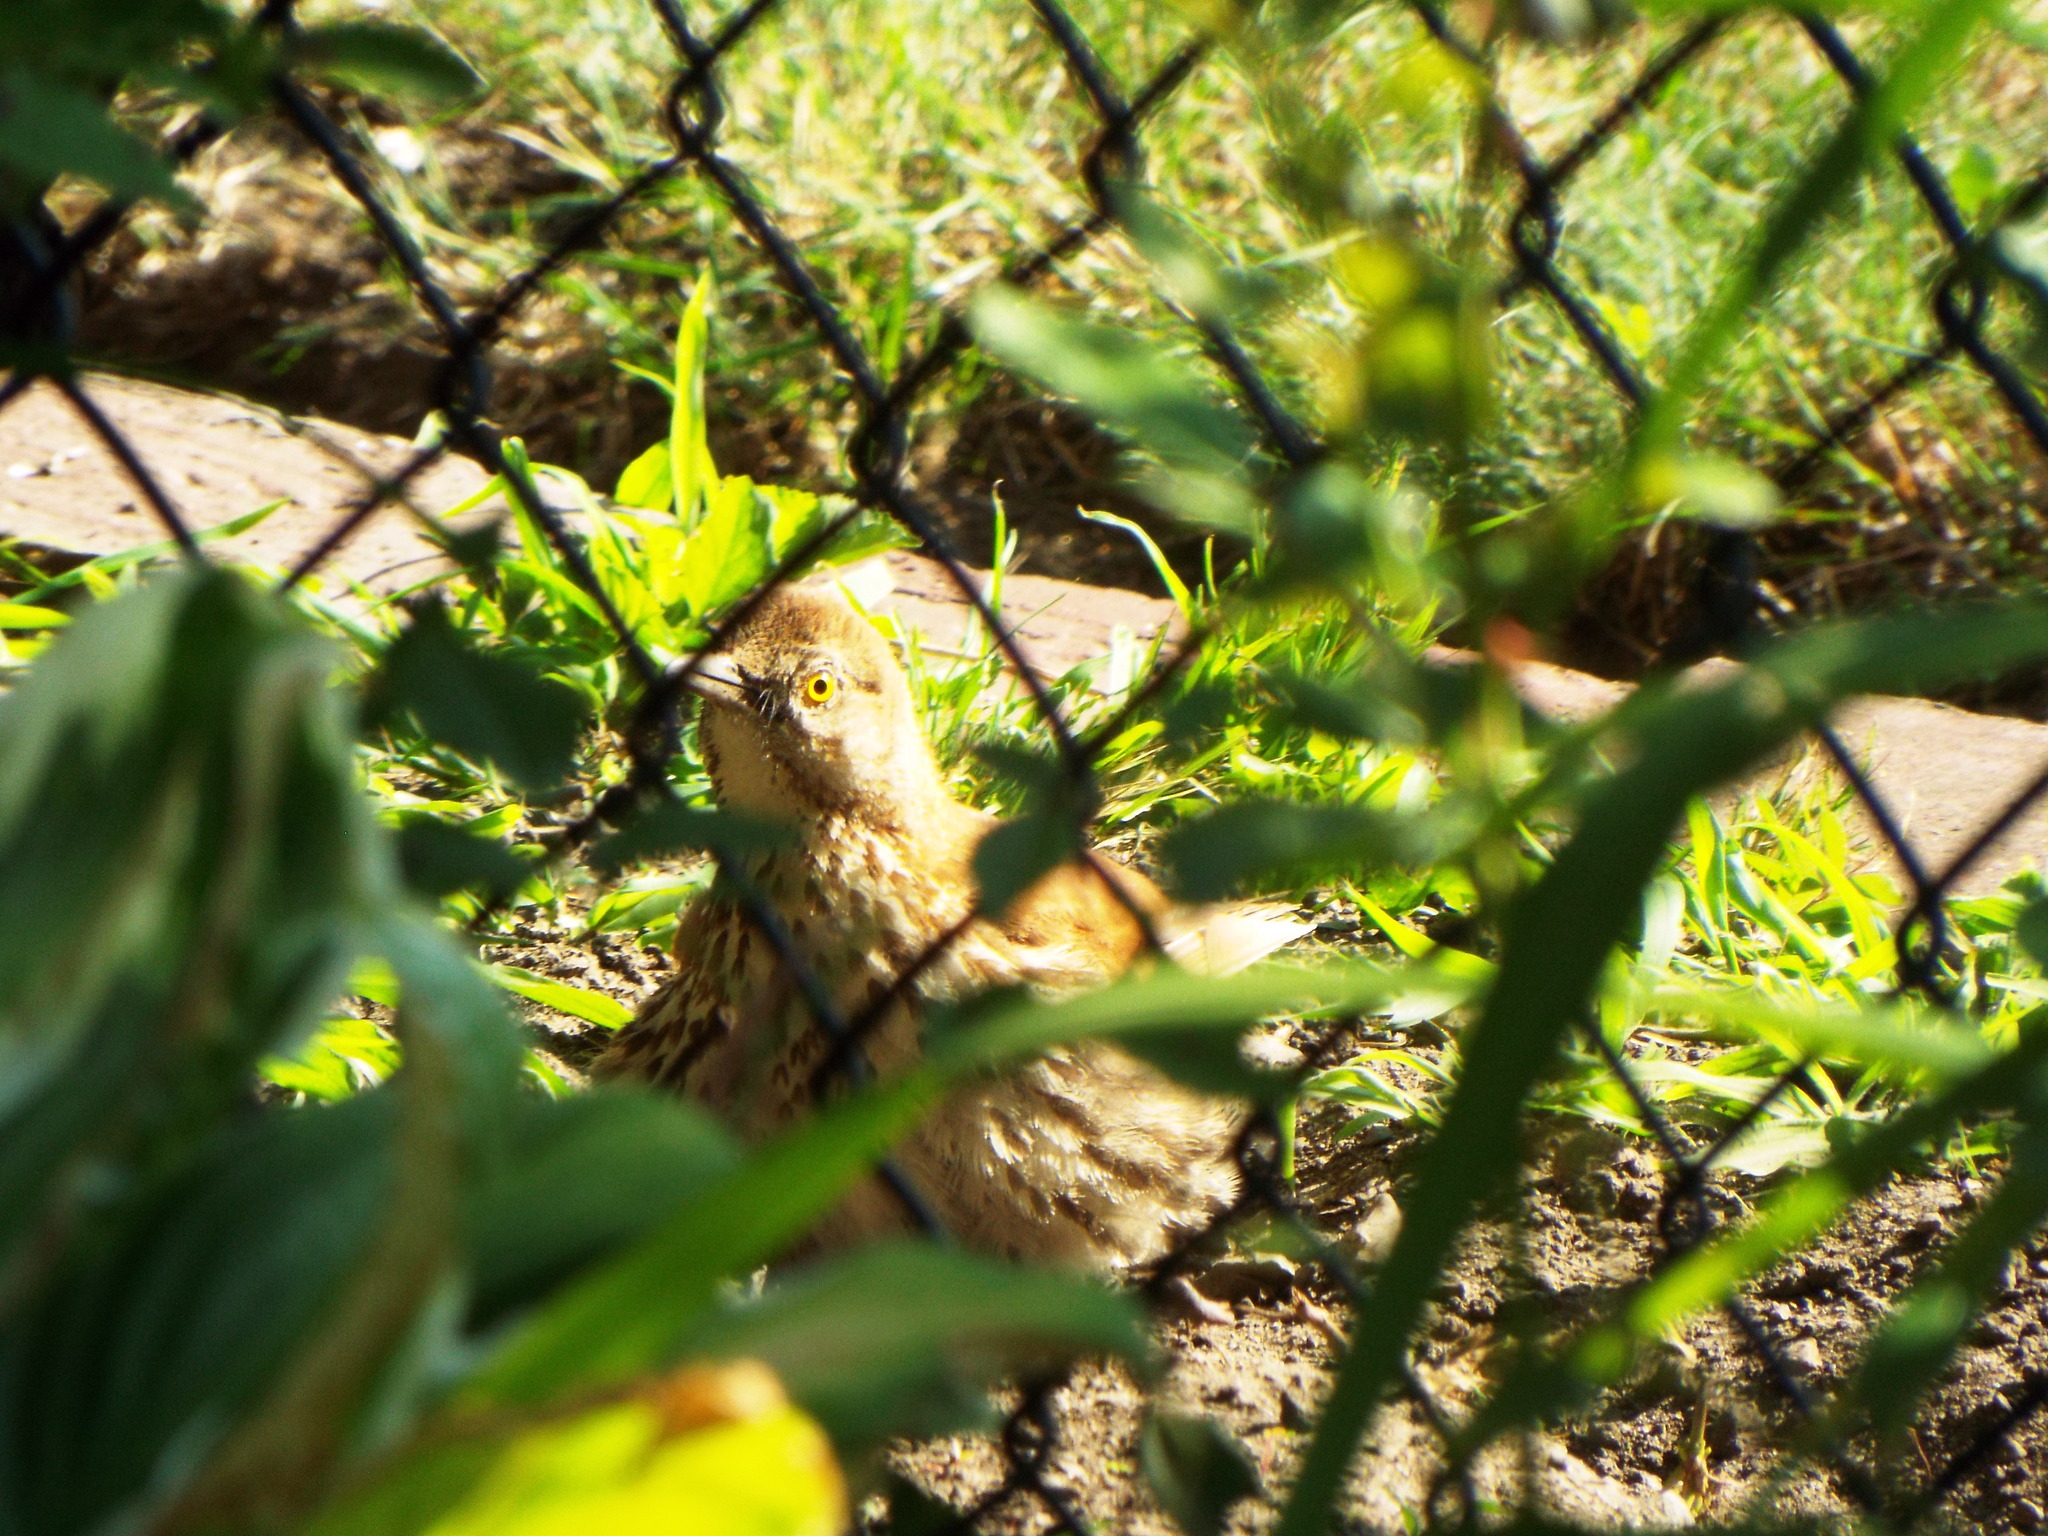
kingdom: Animalia
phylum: Chordata
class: Aves
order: Passeriformes
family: Mimidae
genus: Toxostoma
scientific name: Toxostoma rufum
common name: Brown thrasher
